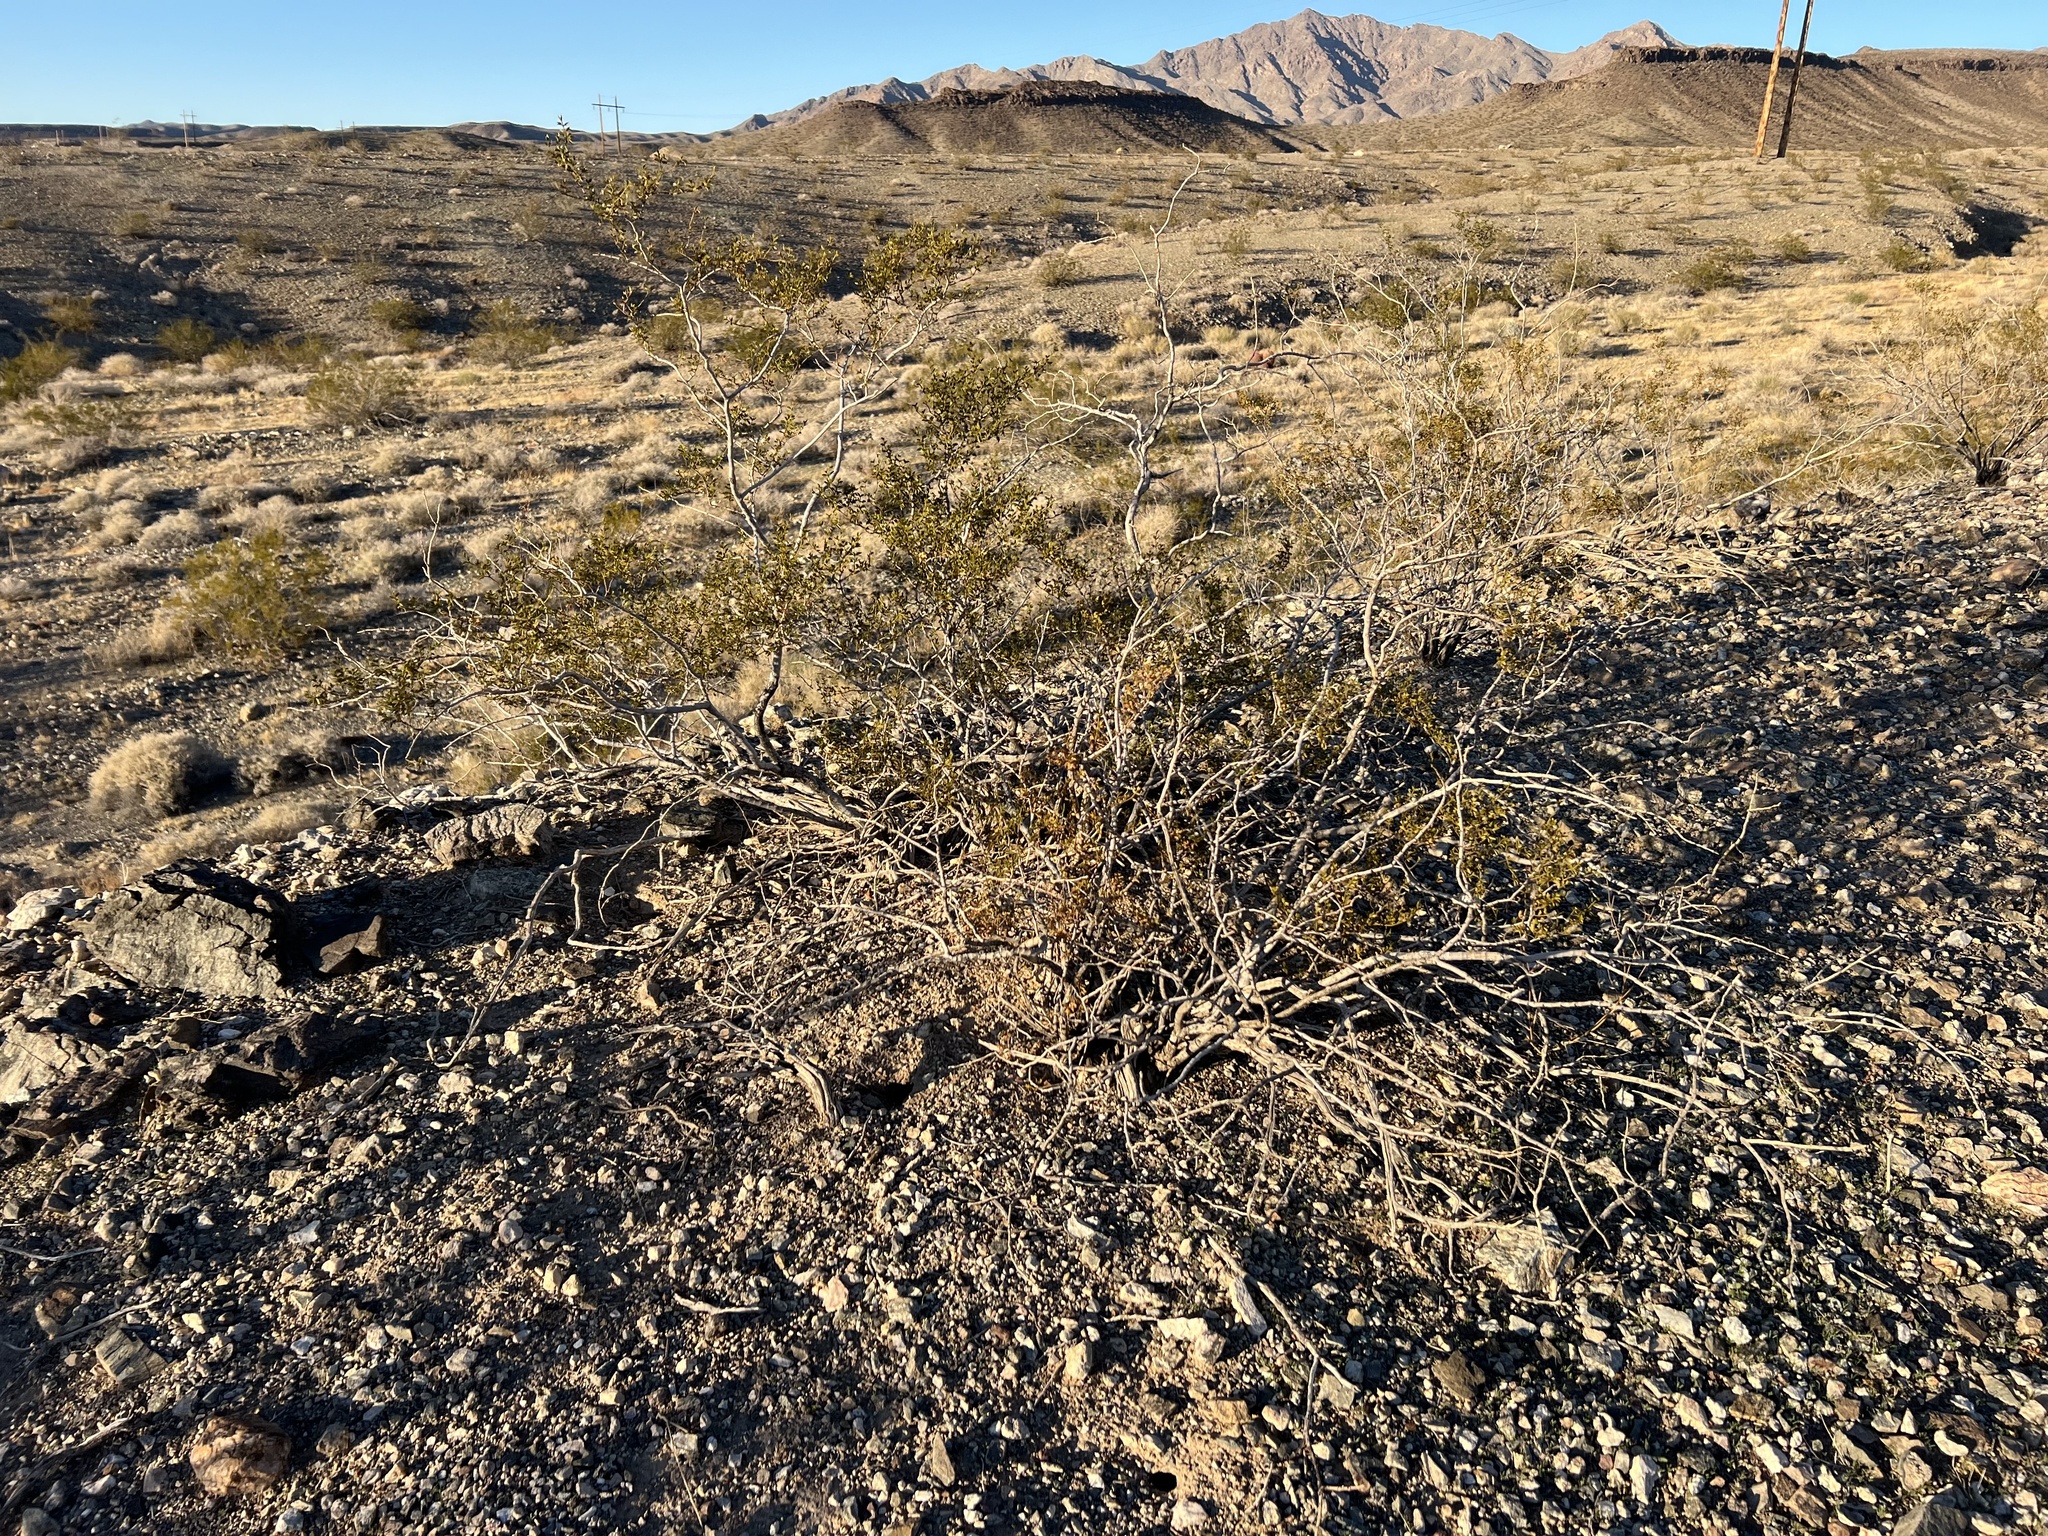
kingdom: Plantae
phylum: Tracheophyta
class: Magnoliopsida
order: Zygophyllales
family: Zygophyllaceae
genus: Larrea
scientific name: Larrea tridentata
